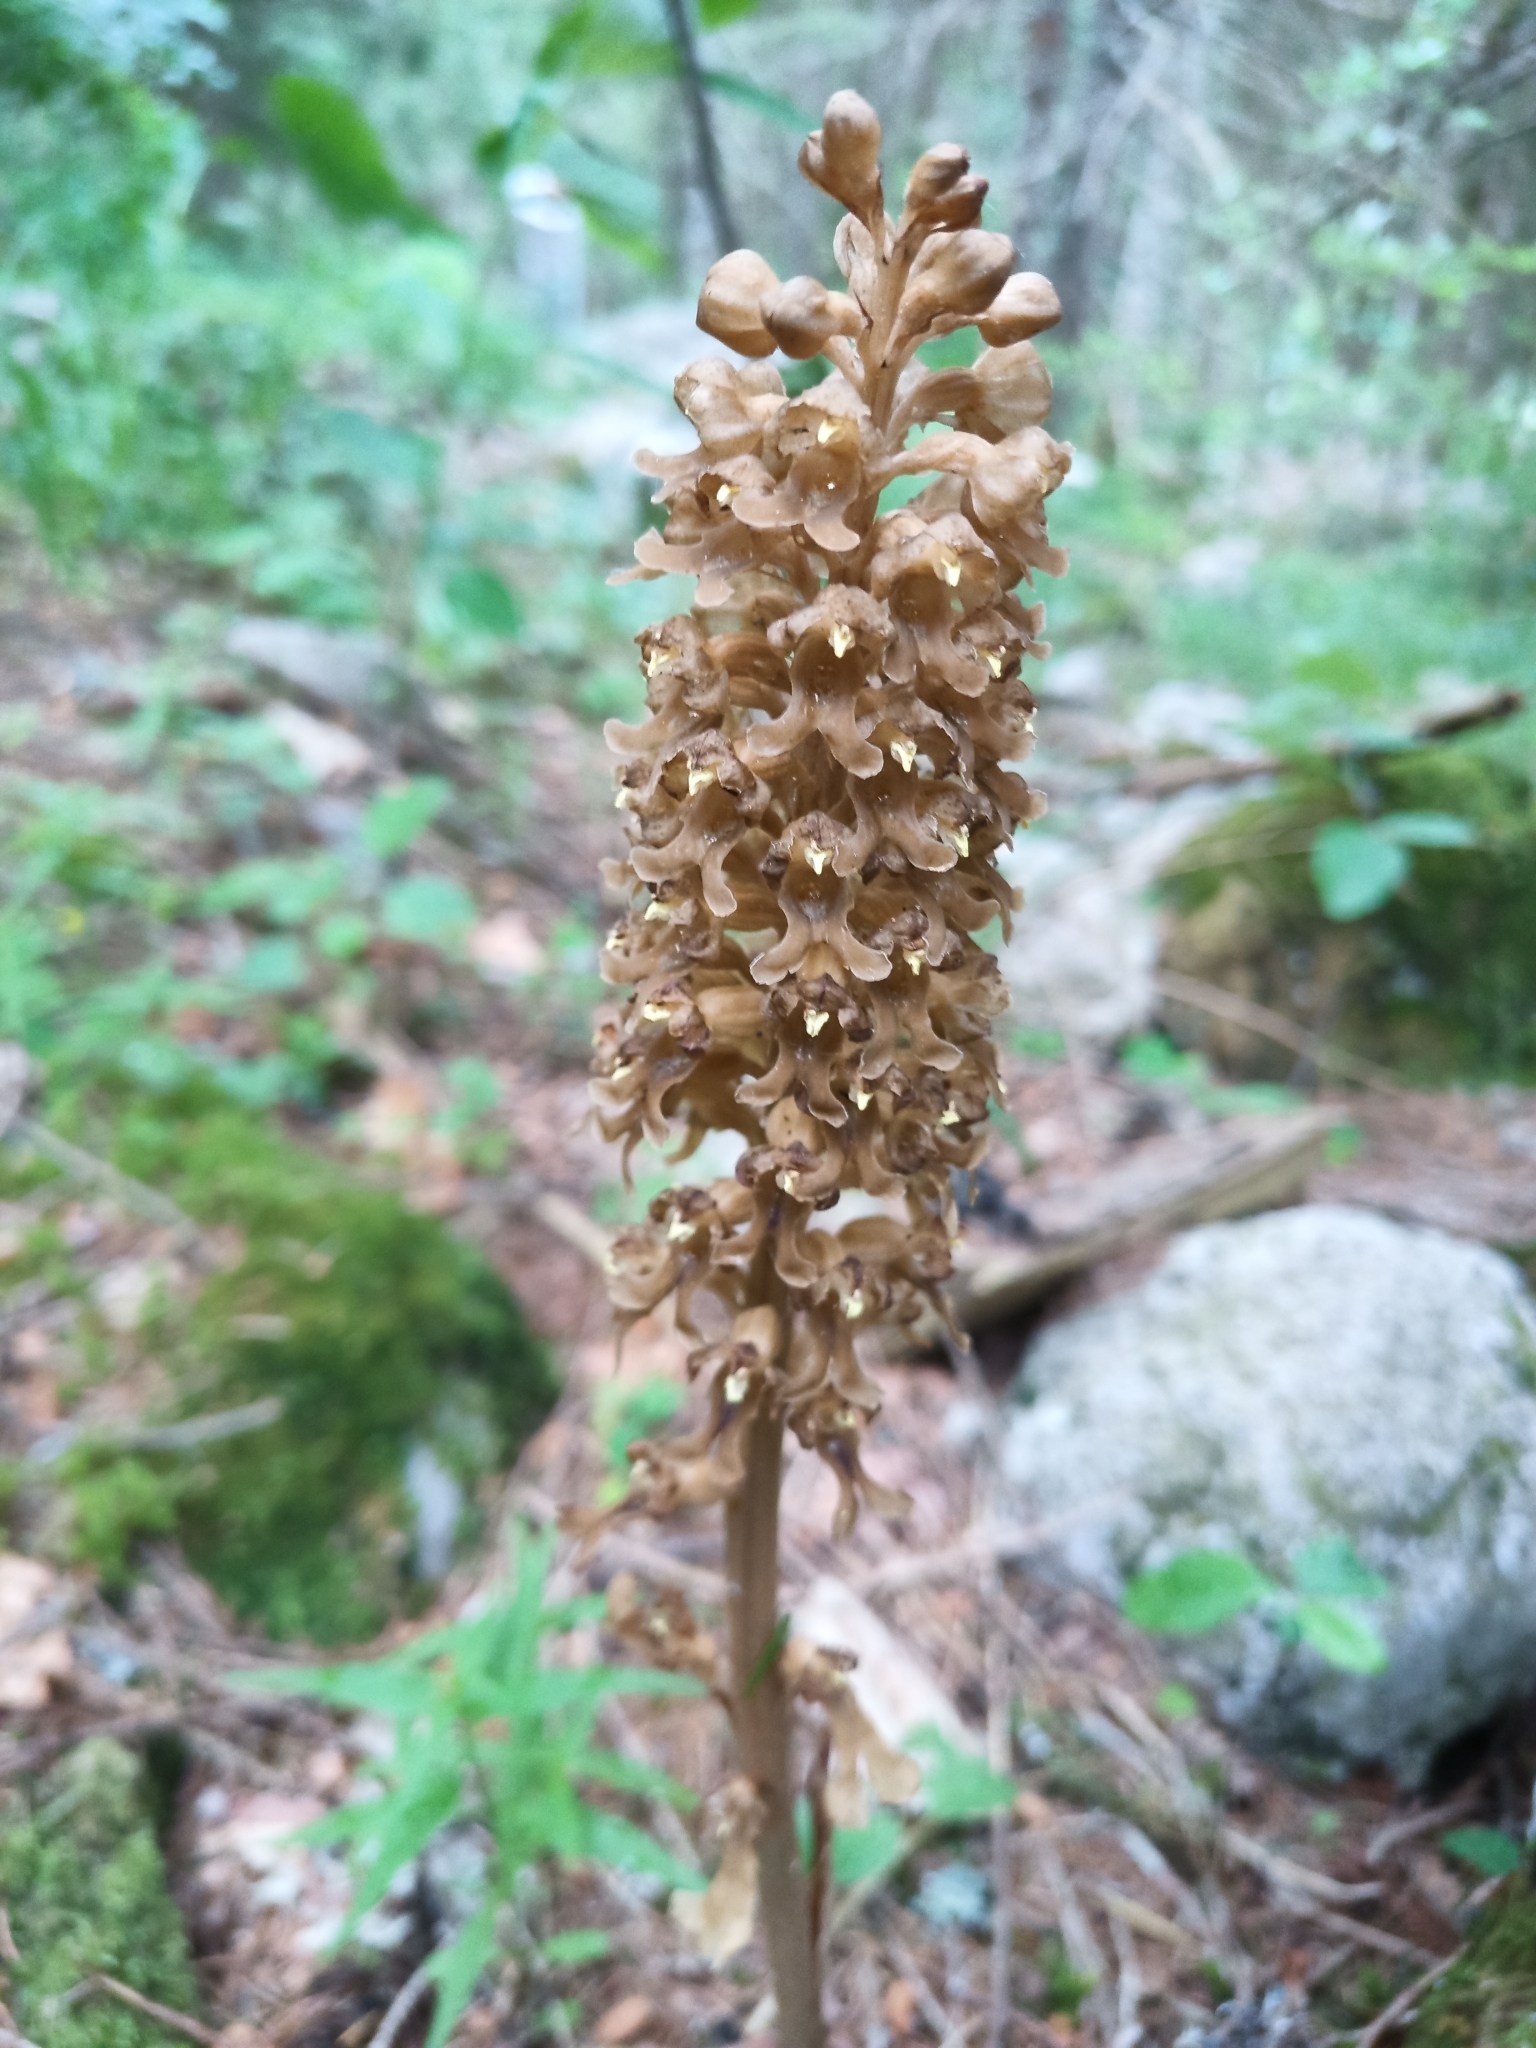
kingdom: Plantae
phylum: Tracheophyta
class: Liliopsida
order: Asparagales
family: Orchidaceae
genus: Neottia
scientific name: Neottia nidus-avis
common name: Bird's-nest orchid
